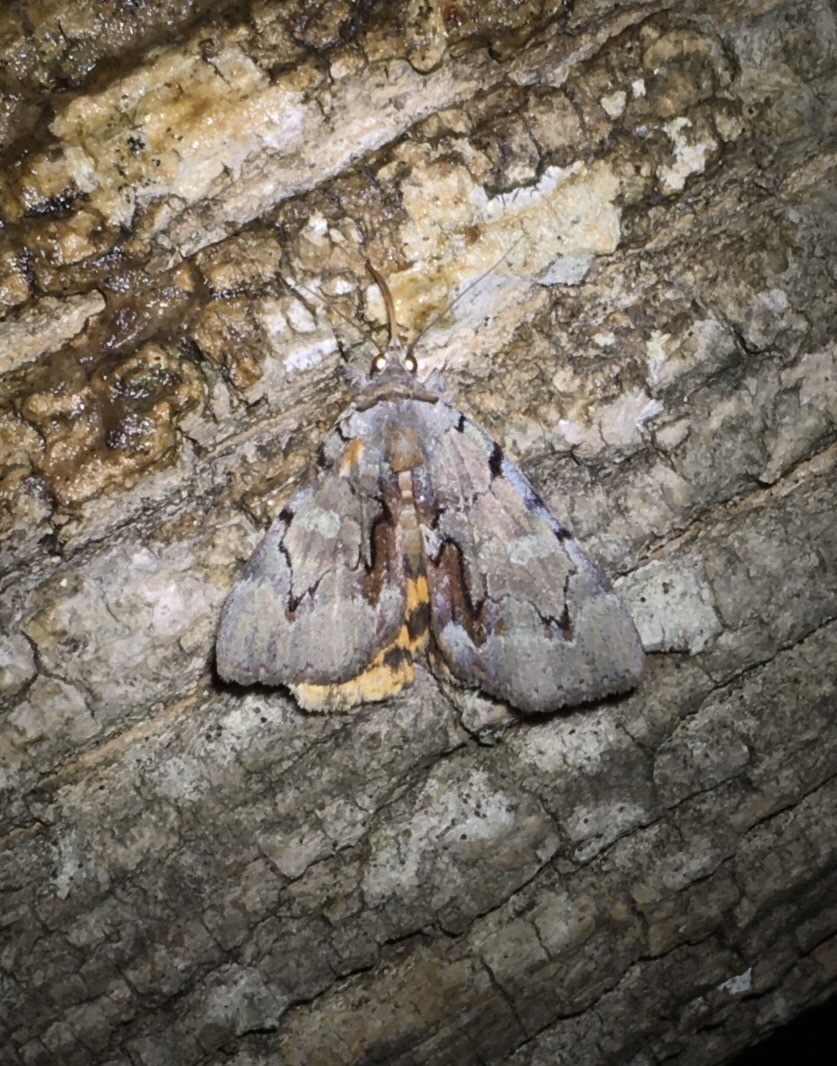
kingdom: Animalia
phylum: Arthropoda
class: Insecta
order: Lepidoptera
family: Erebidae
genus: Catocala
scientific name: Catocala grynea
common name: Woody underwing
